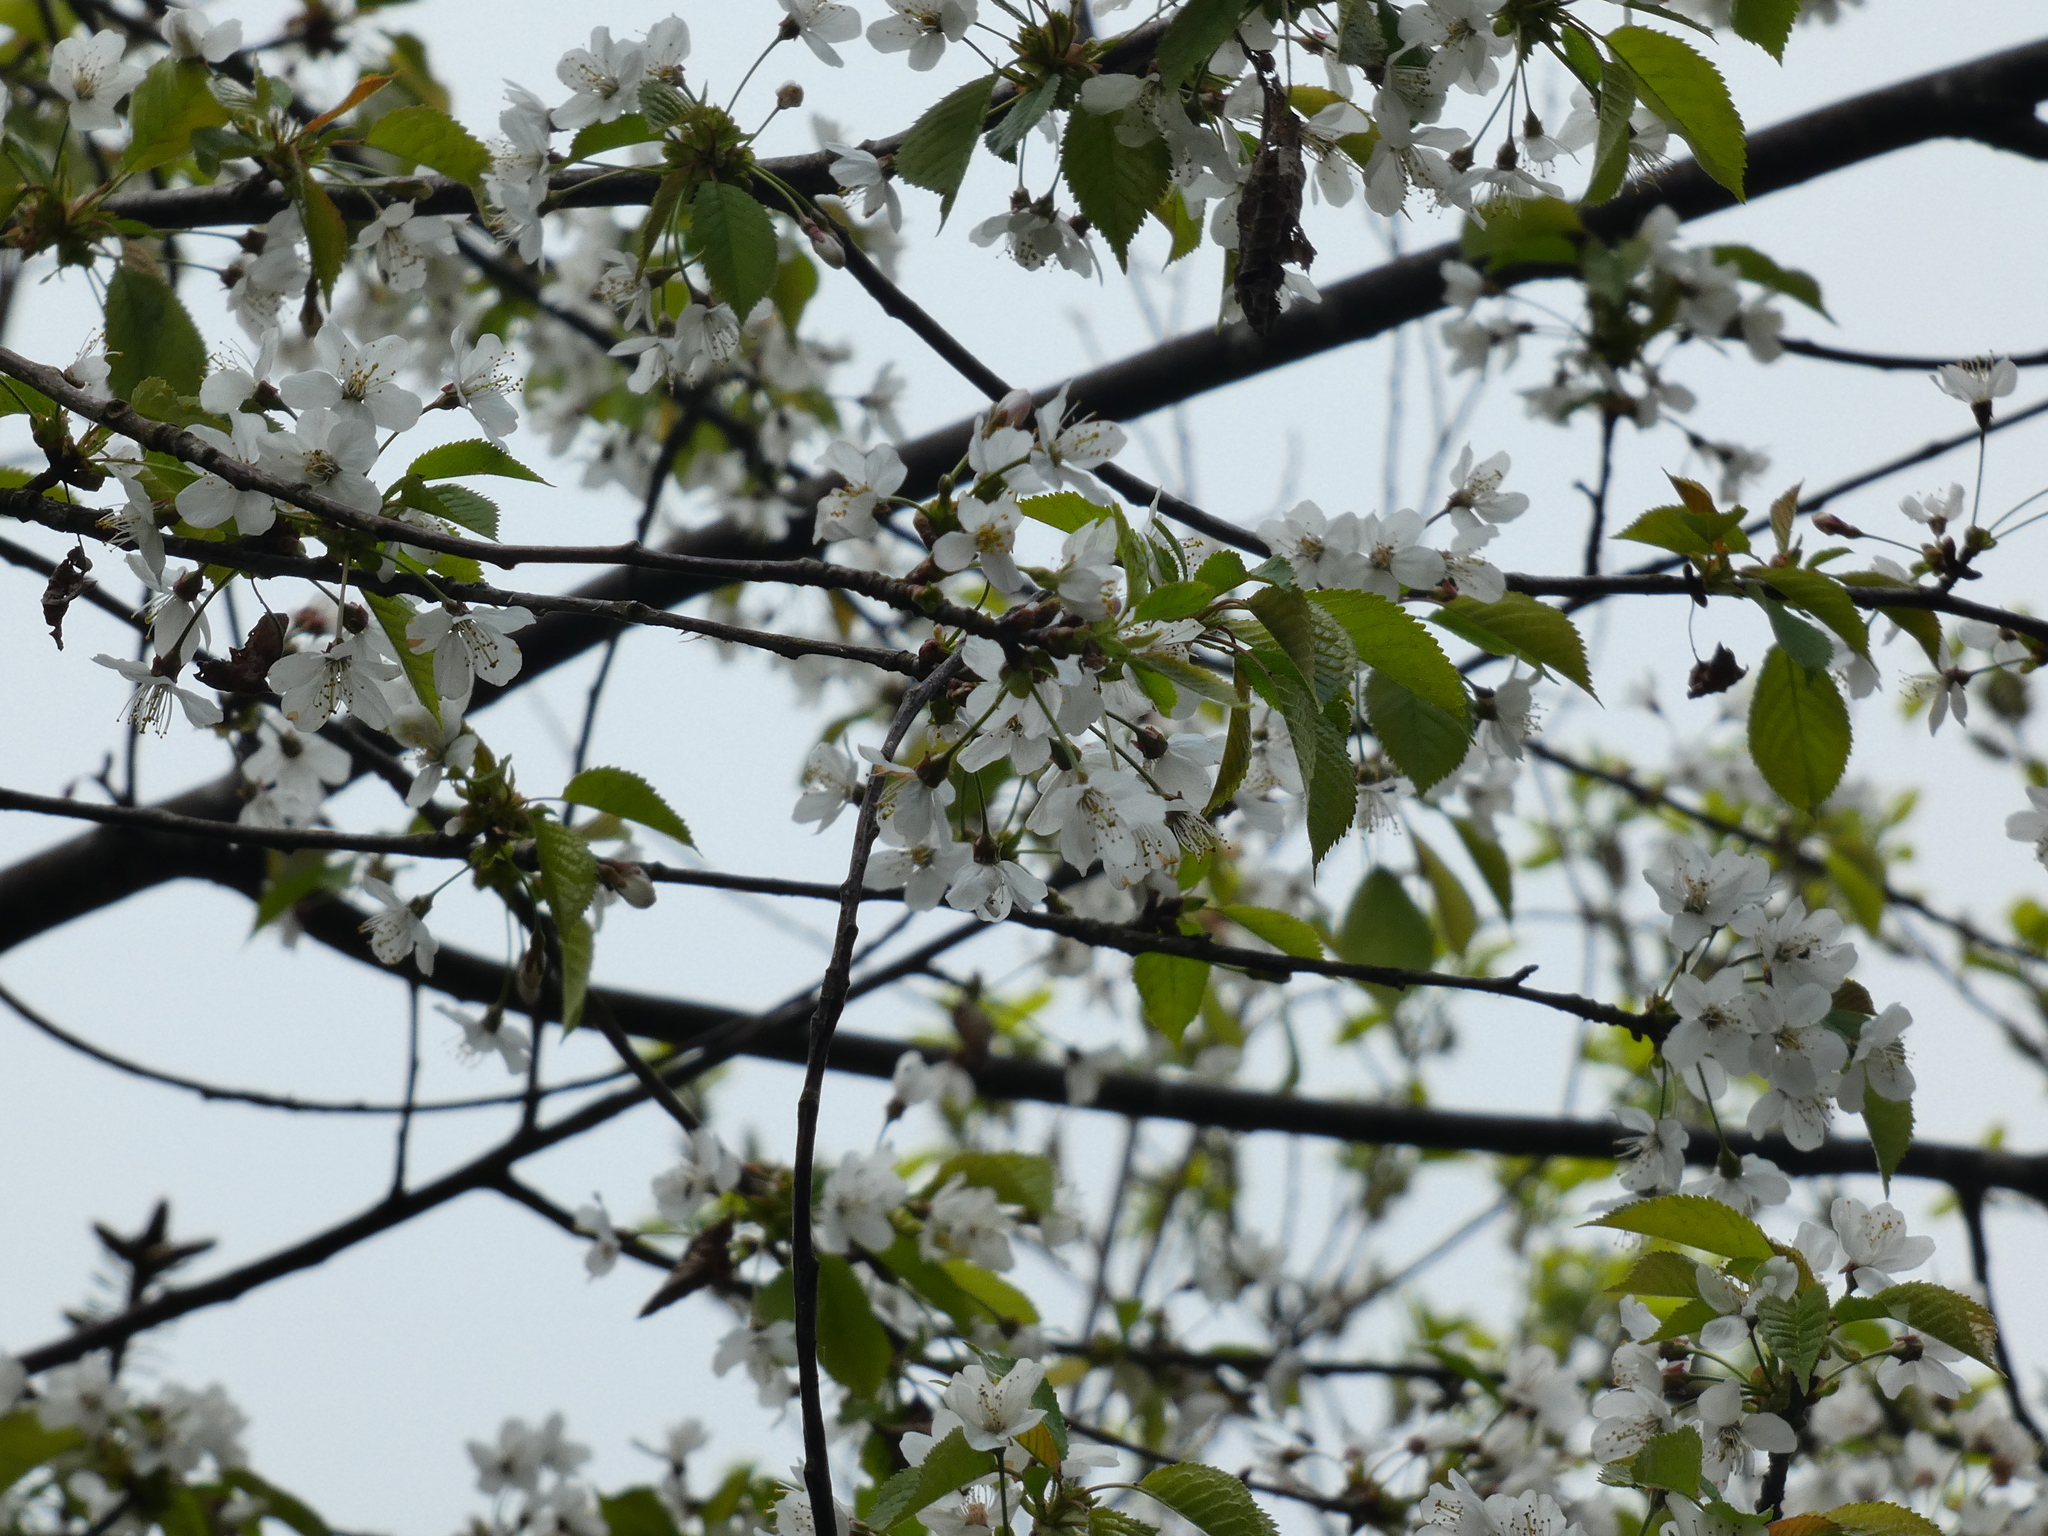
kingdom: Plantae
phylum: Tracheophyta
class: Magnoliopsida
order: Rosales
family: Rosaceae
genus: Prunus
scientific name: Prunus avium
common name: Sweet cherry
